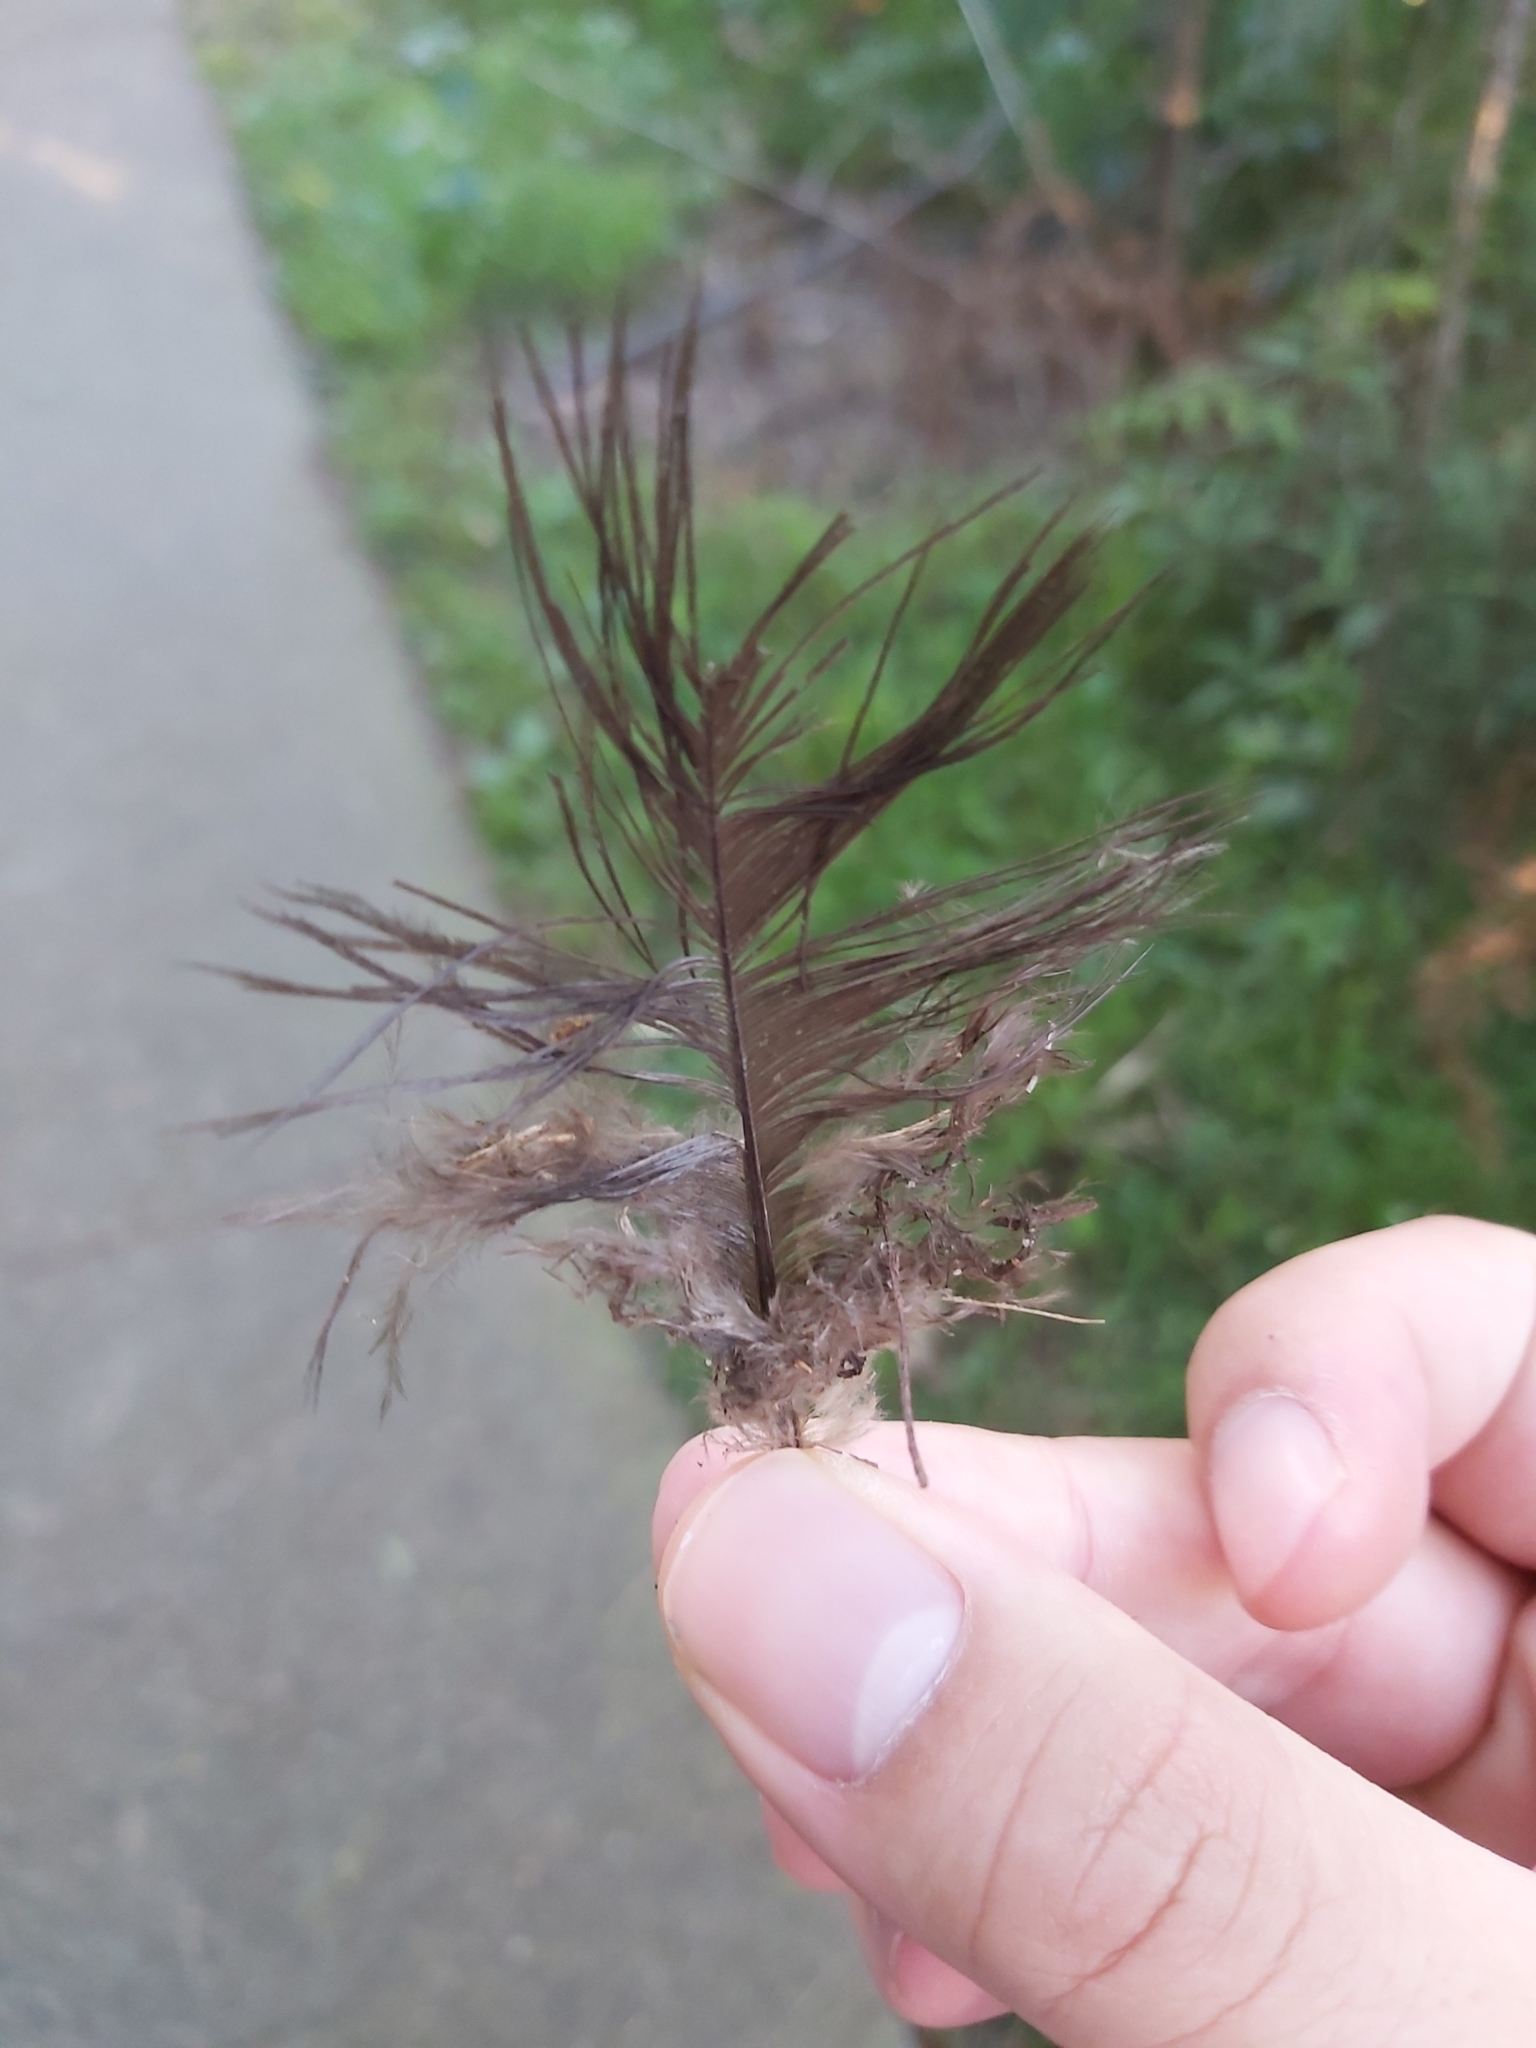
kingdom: Animalia
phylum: Chordata
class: Aves
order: Galliformes
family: Megapodiidae
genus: Alectura
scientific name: Alectura lathami
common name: Australian brushturkey
